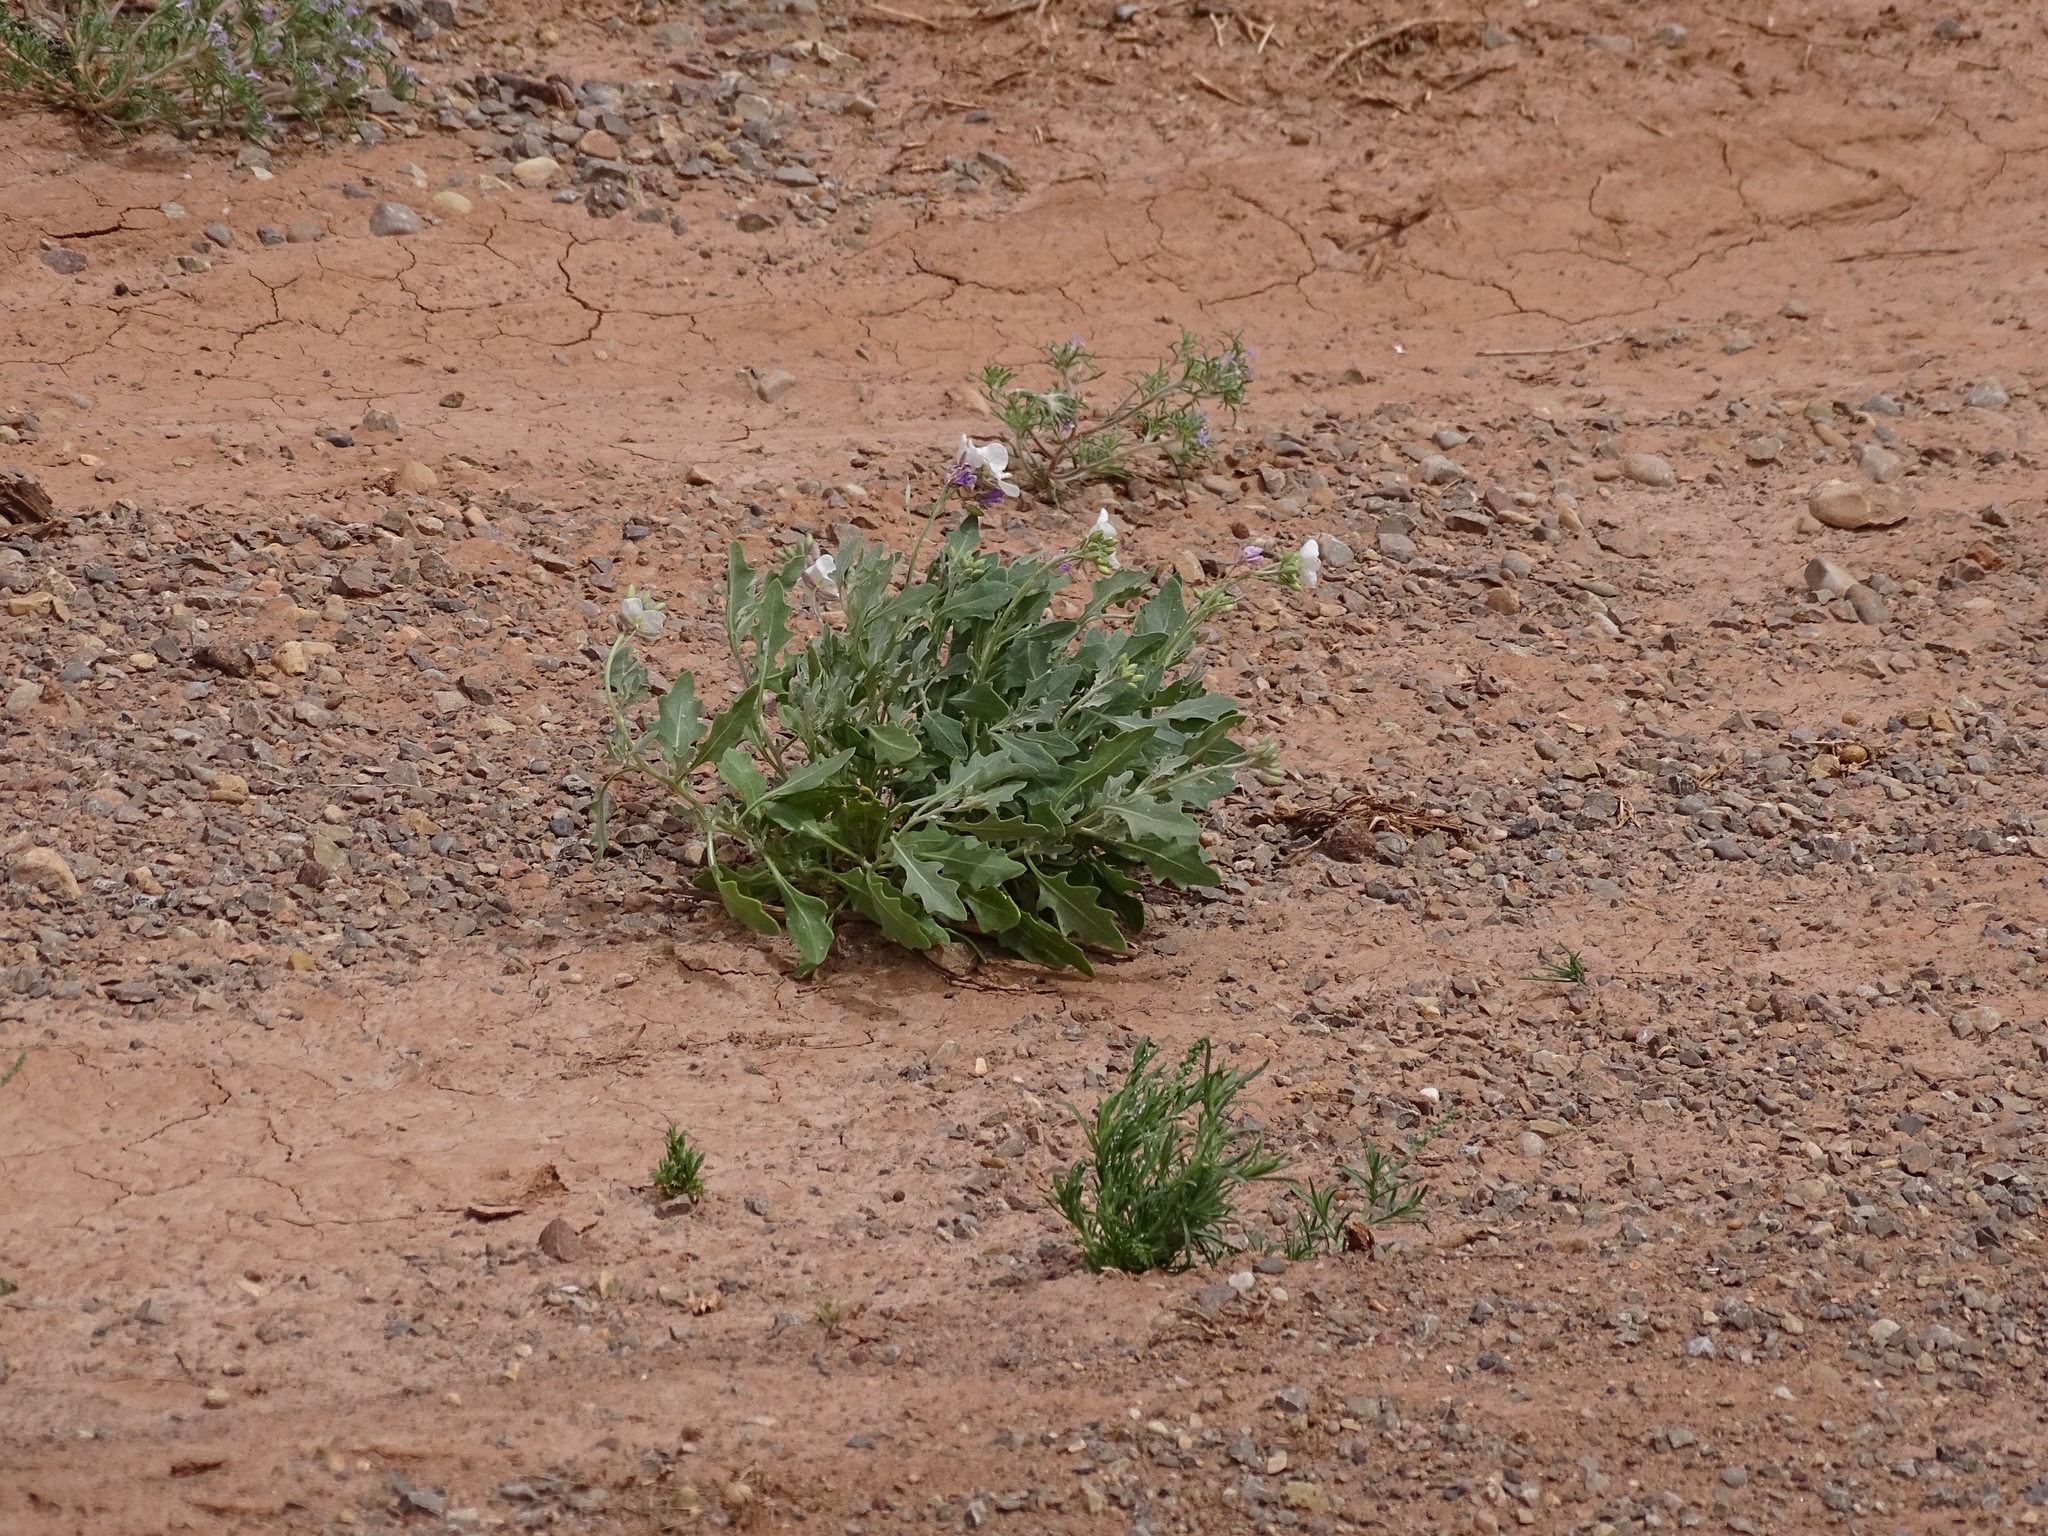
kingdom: Plantae
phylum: Tracheophyta
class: Magnoliopsida
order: Brassicales
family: Brassicaceae
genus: Nerisyrenia
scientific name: Nerisyrenia camporum
